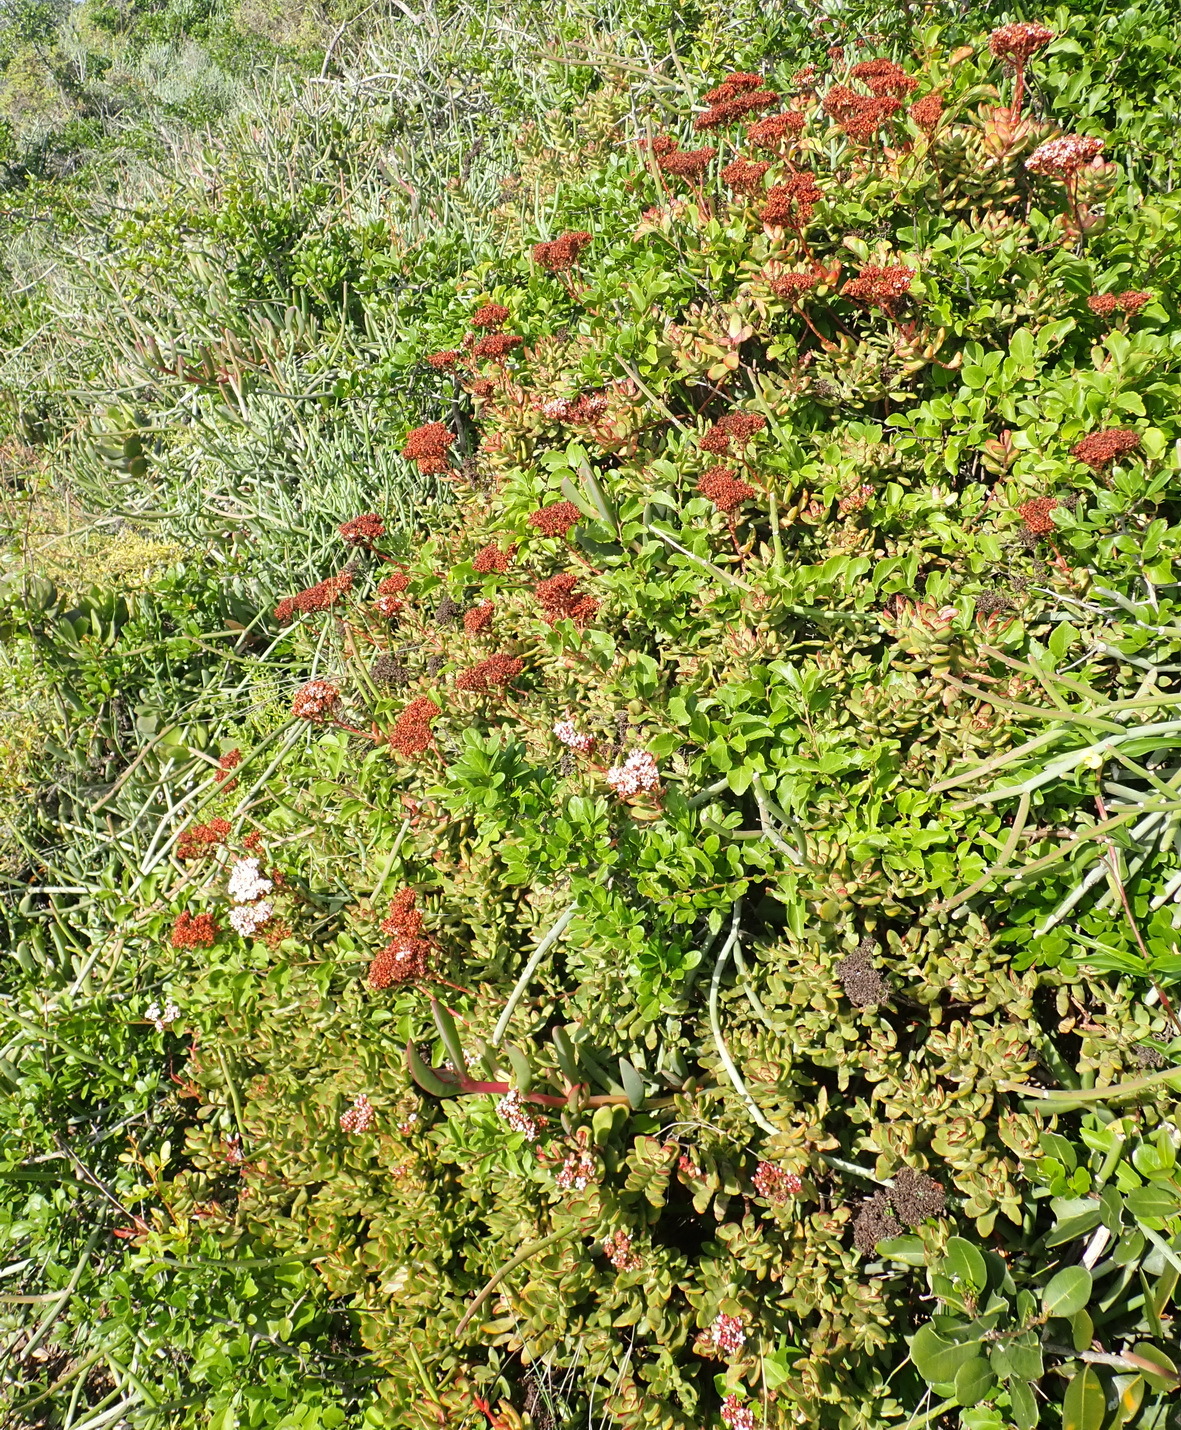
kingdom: Plantae
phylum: Tracheophyta
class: Magnoliopsida
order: Saxifragales
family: Crassulaceae
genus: Crassula
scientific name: Crassula rubricaulis
